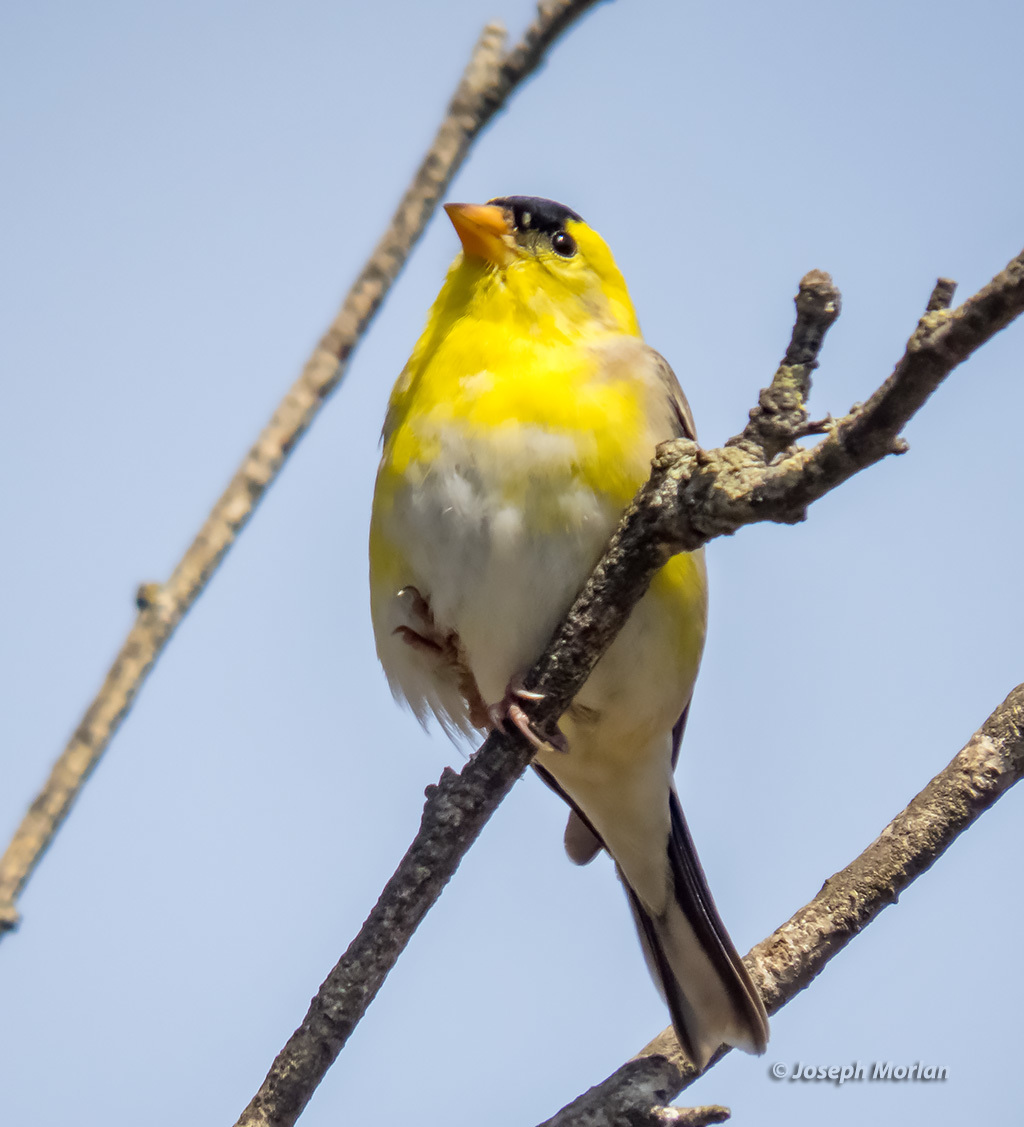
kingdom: Animalia
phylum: Chordata
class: Aves
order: Passeriformes
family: Fringillidae
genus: Spinus
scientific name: Spinus tristis
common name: American goldfinch
